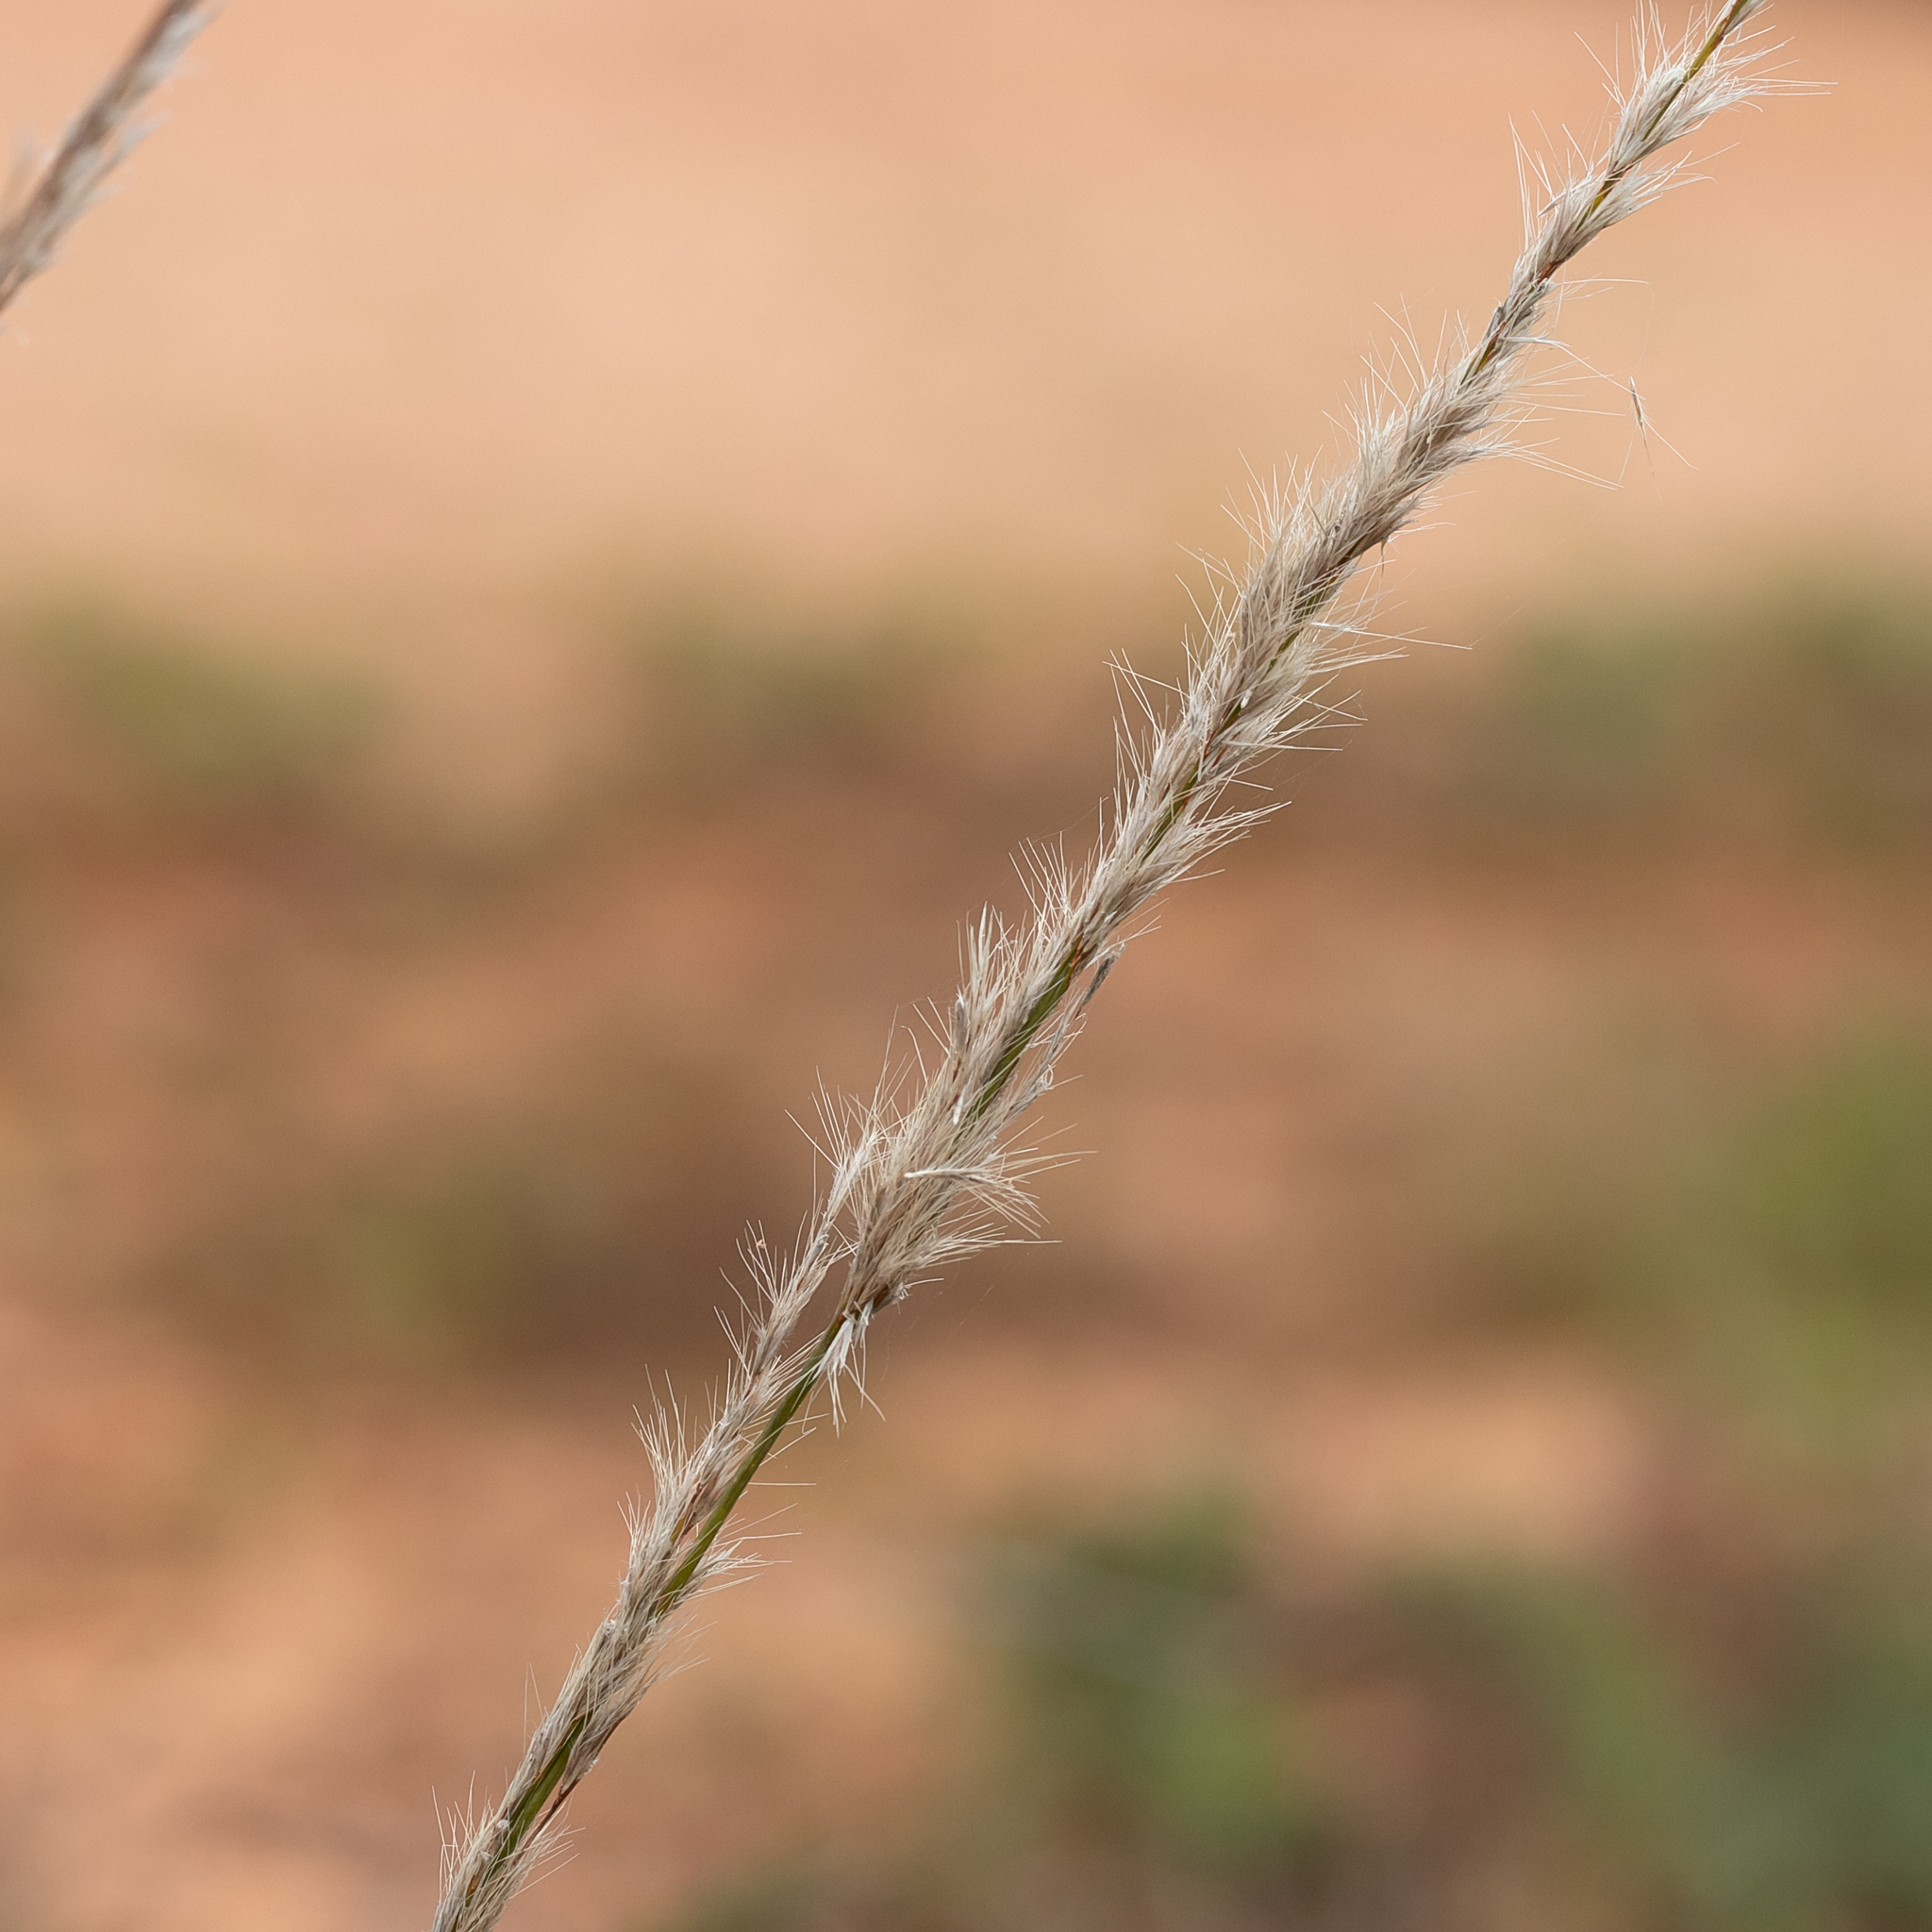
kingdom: Plantae
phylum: Tracheophyta
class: Liliopsida
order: Poales
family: Poaceae
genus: Triraphis
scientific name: Triraphis mollis
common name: Purple needlegrass
